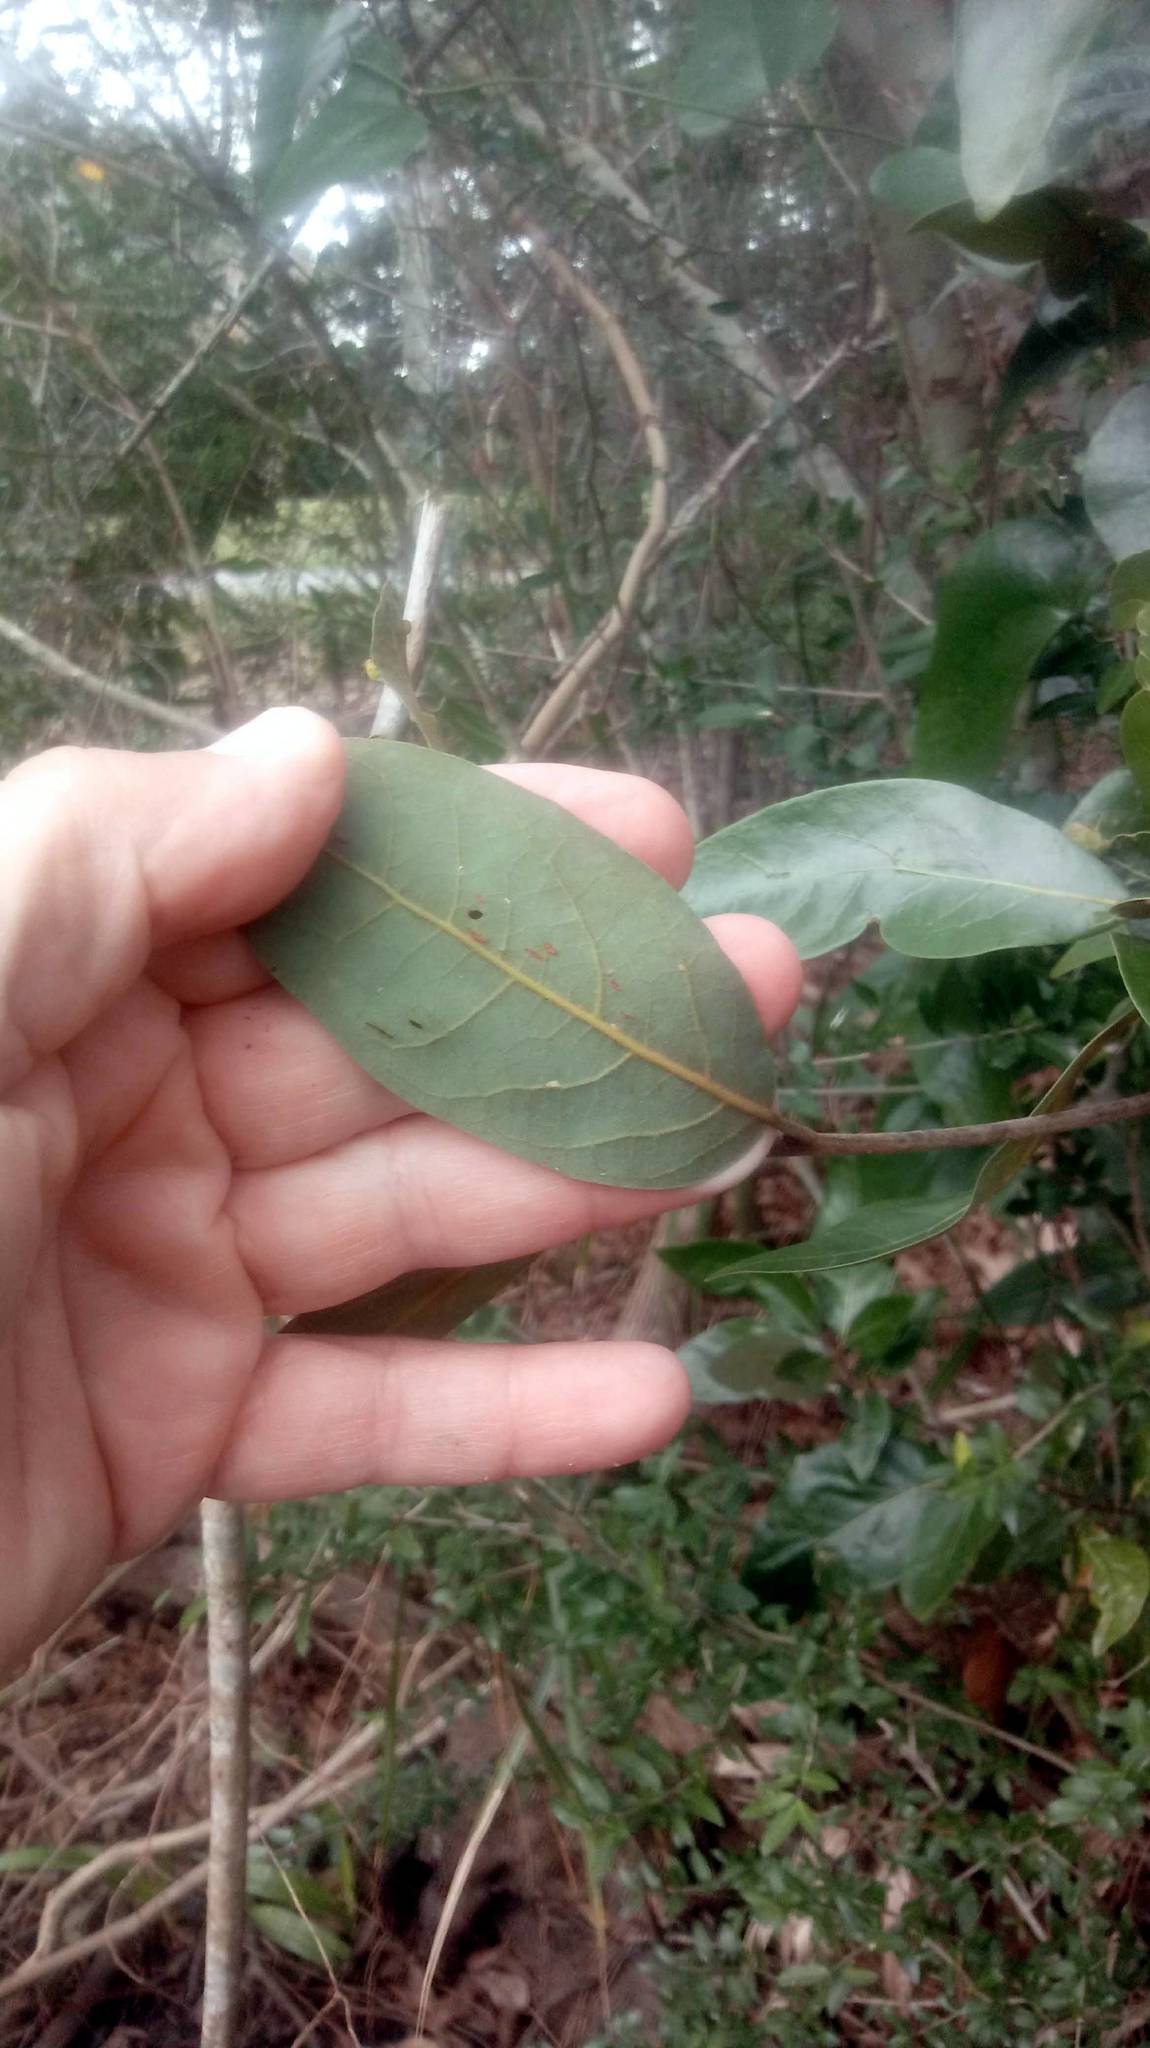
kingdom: Plantae
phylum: Tracheophyta
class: Magnoliopsida
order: Laurales
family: Lauraceae
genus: Persea
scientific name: Persea palustris
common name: Swampbay
